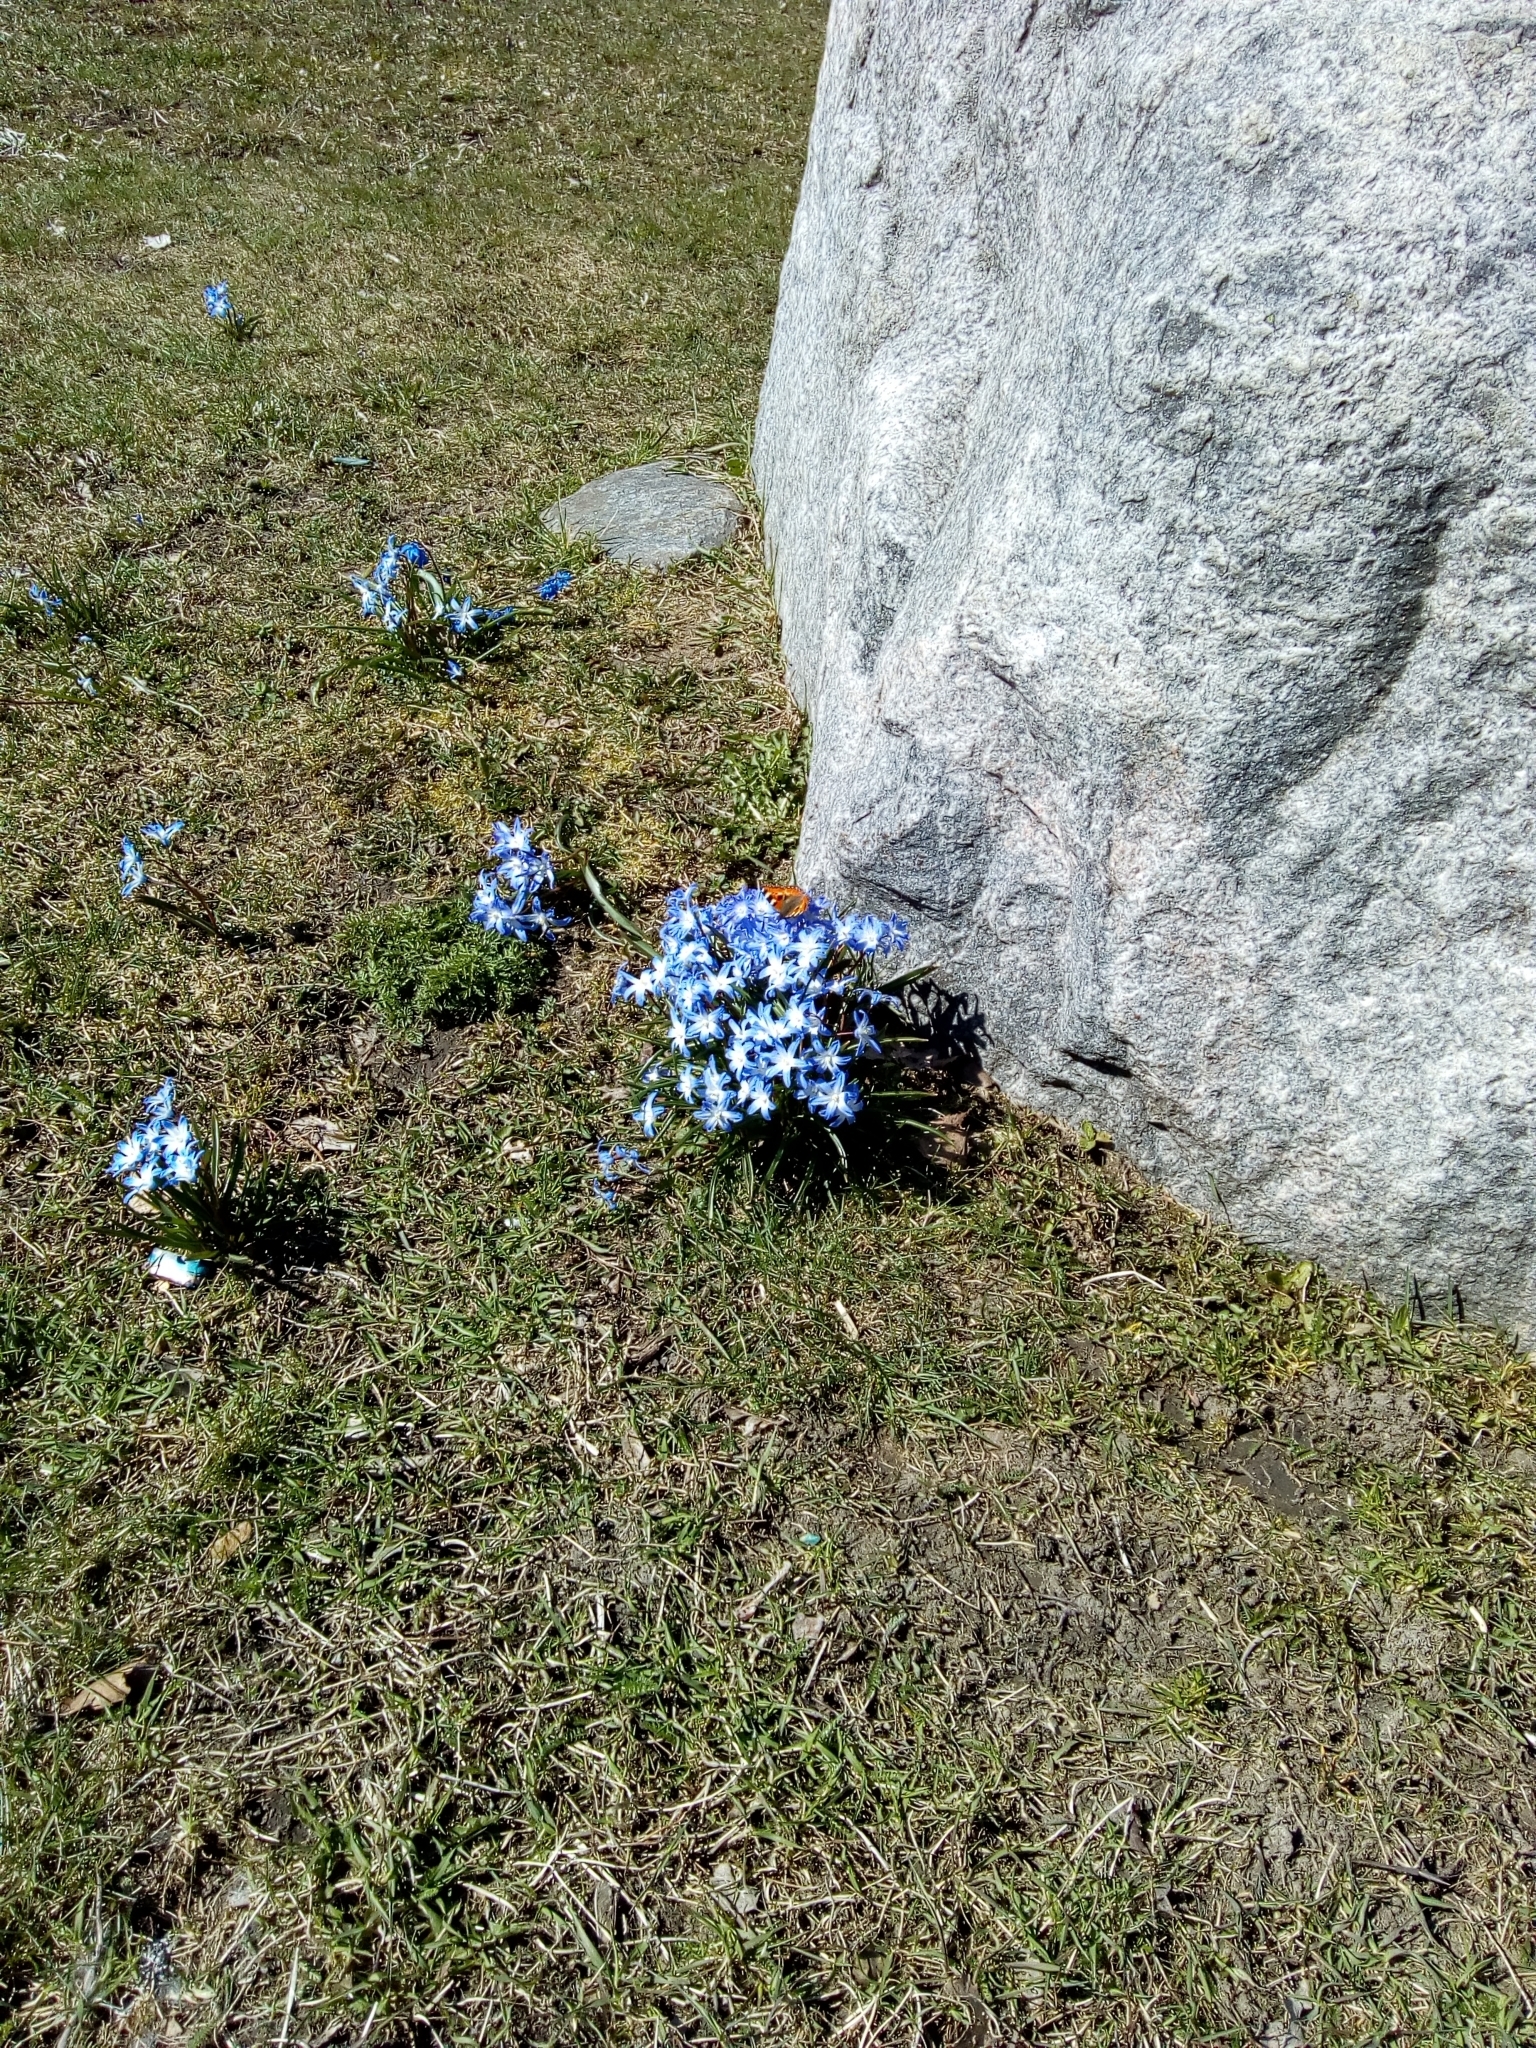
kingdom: Animalia
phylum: Arthropoda
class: Insecta
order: Lepidoptera
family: Nymphalidae
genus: Aglais
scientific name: Aglais urticae
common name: Small tortoiseshell
